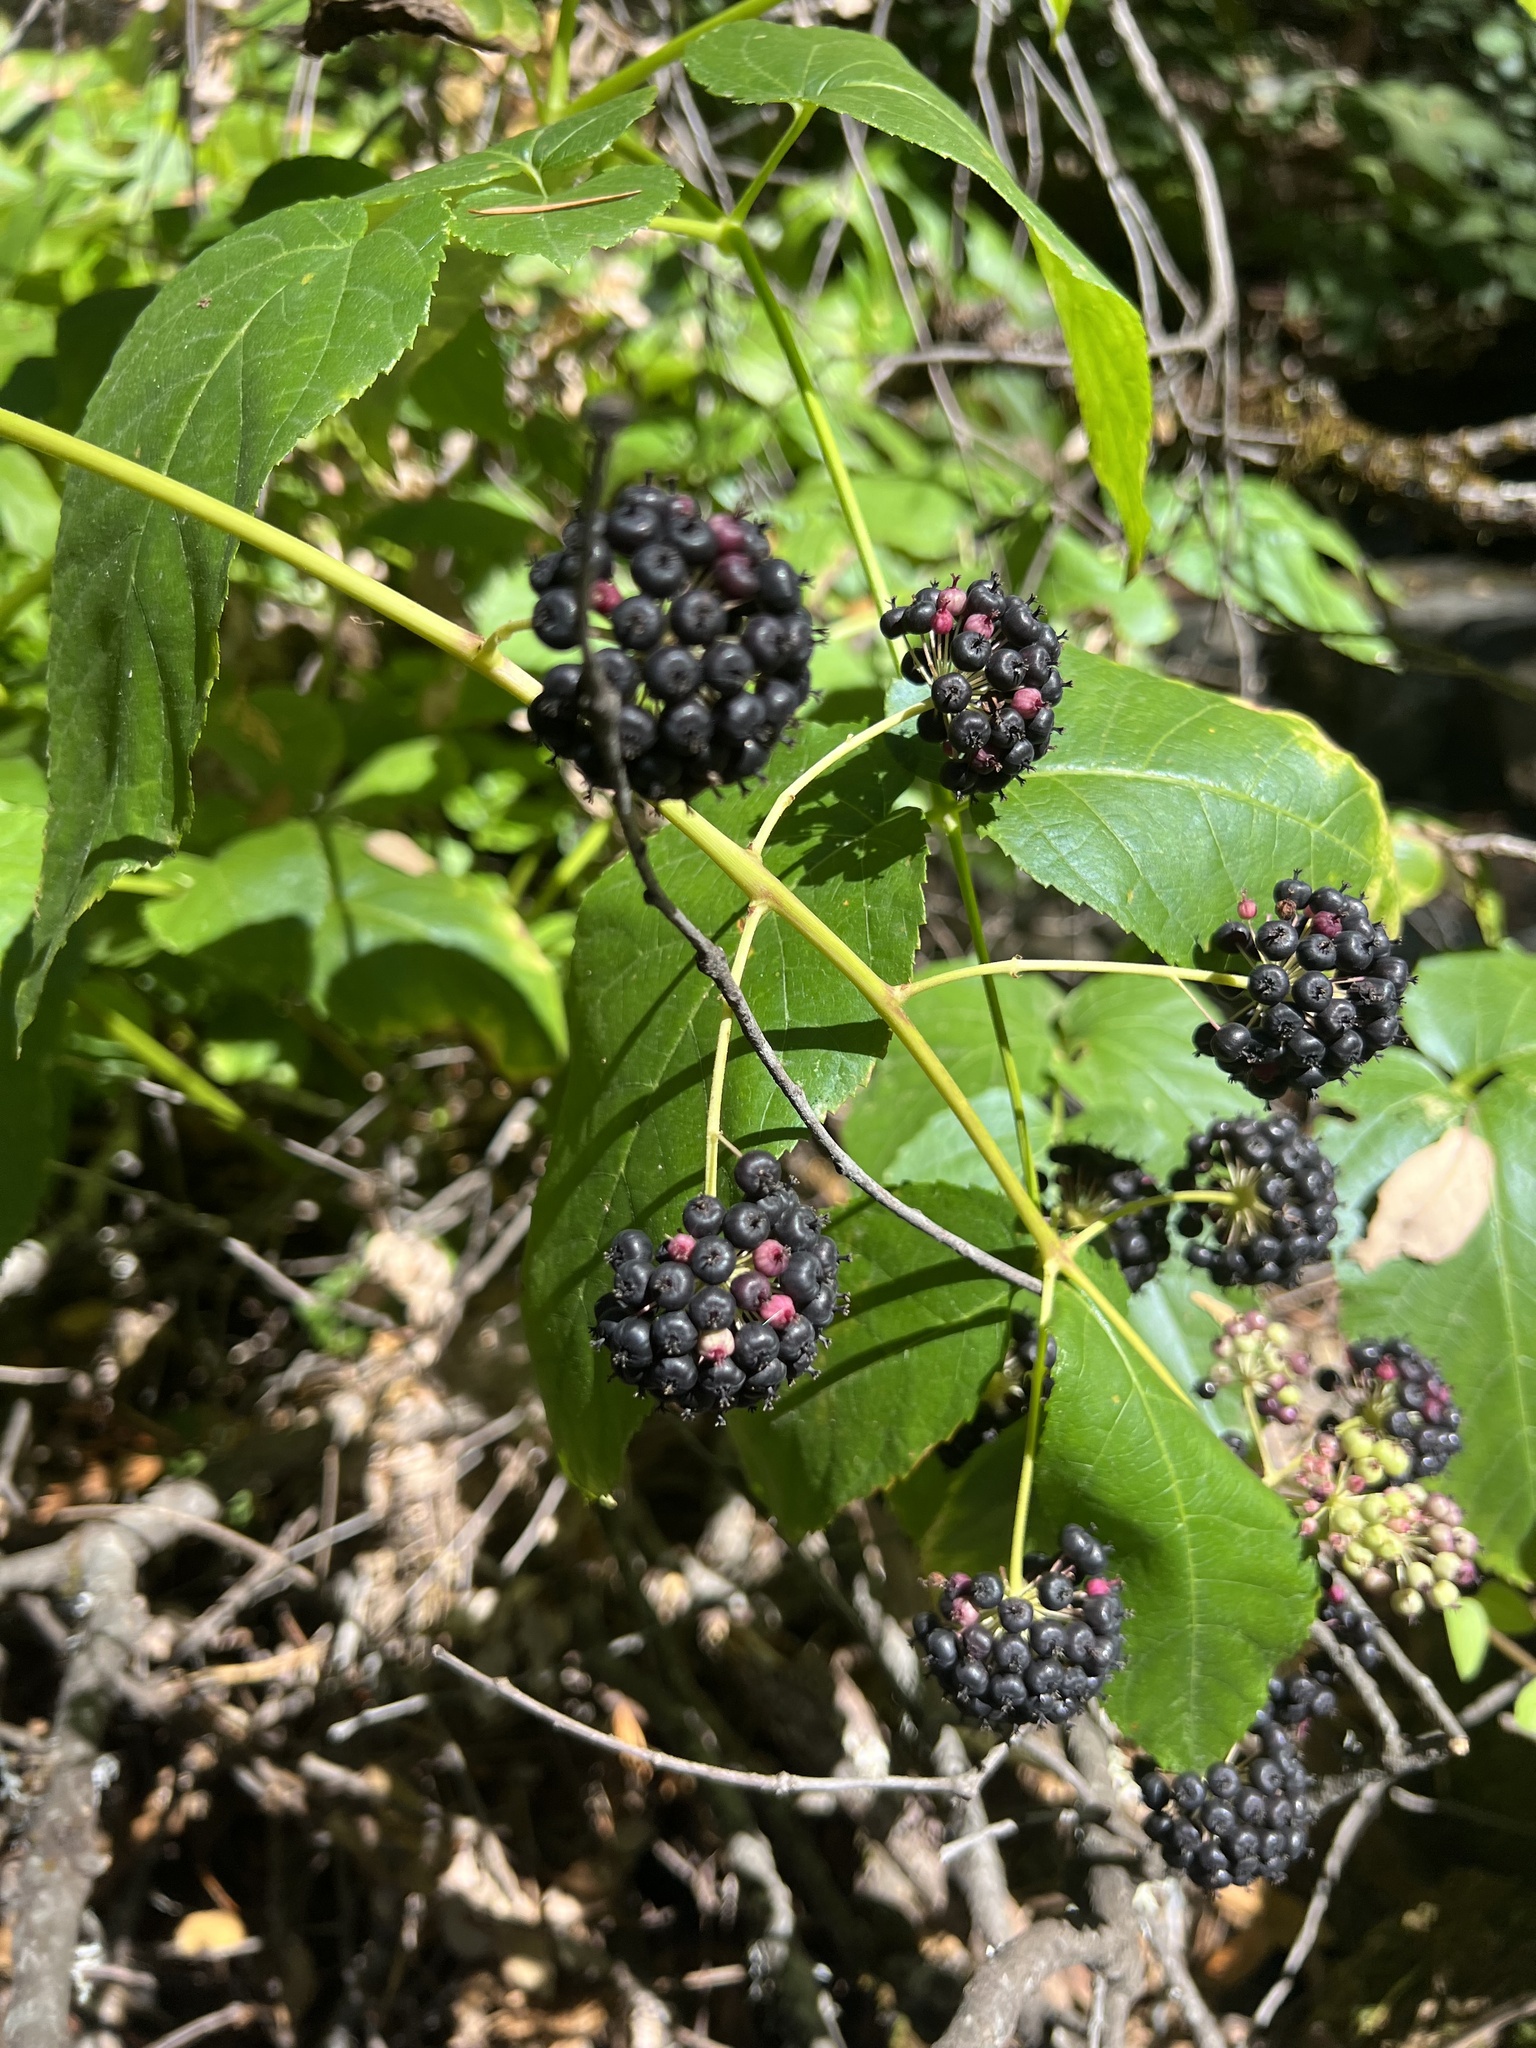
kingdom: Plantae
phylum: Tracheophyta
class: Magnoliopsida
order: Apiales
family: Araliaceae
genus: Aralia
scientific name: Aralia californica
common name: California-ginseng
